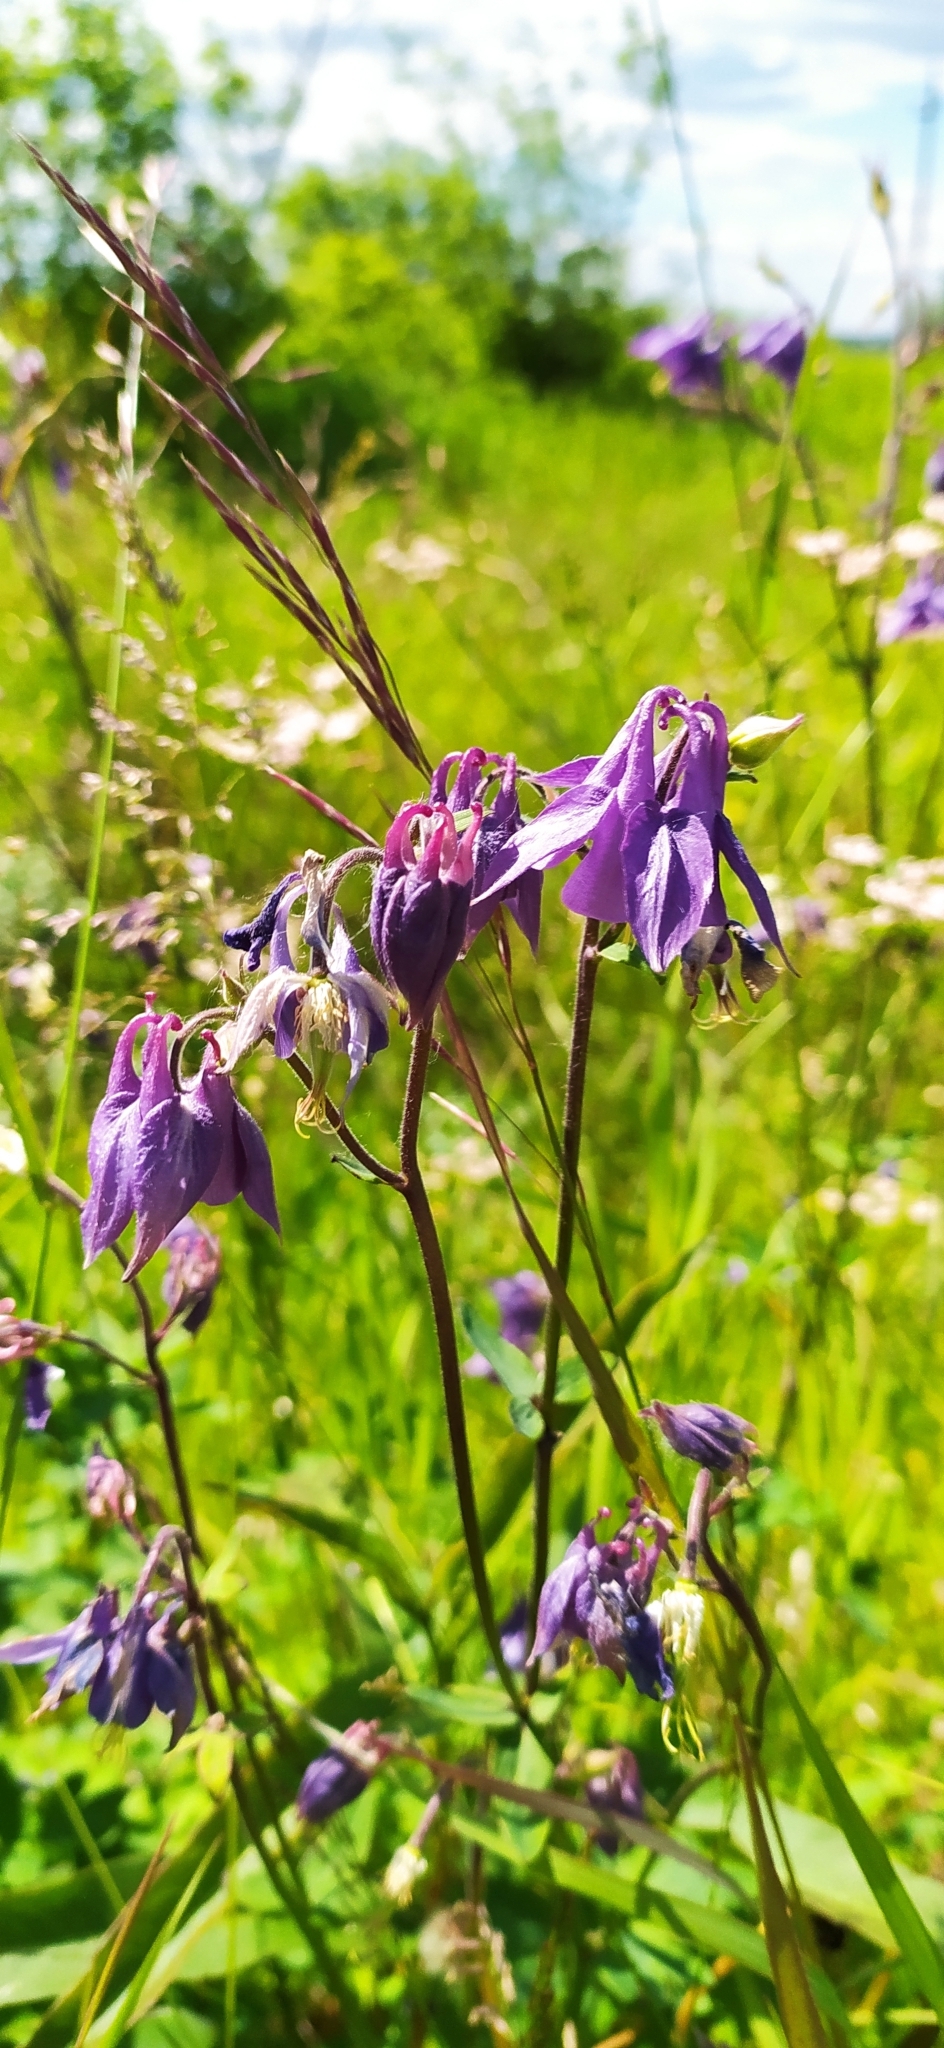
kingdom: Plantae
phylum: Tracheophyta
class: Magnoliopsida
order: Ranunculales
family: Ranunculaceae
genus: Aquilegia
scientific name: Aquilegia vulgaris
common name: Columbine
